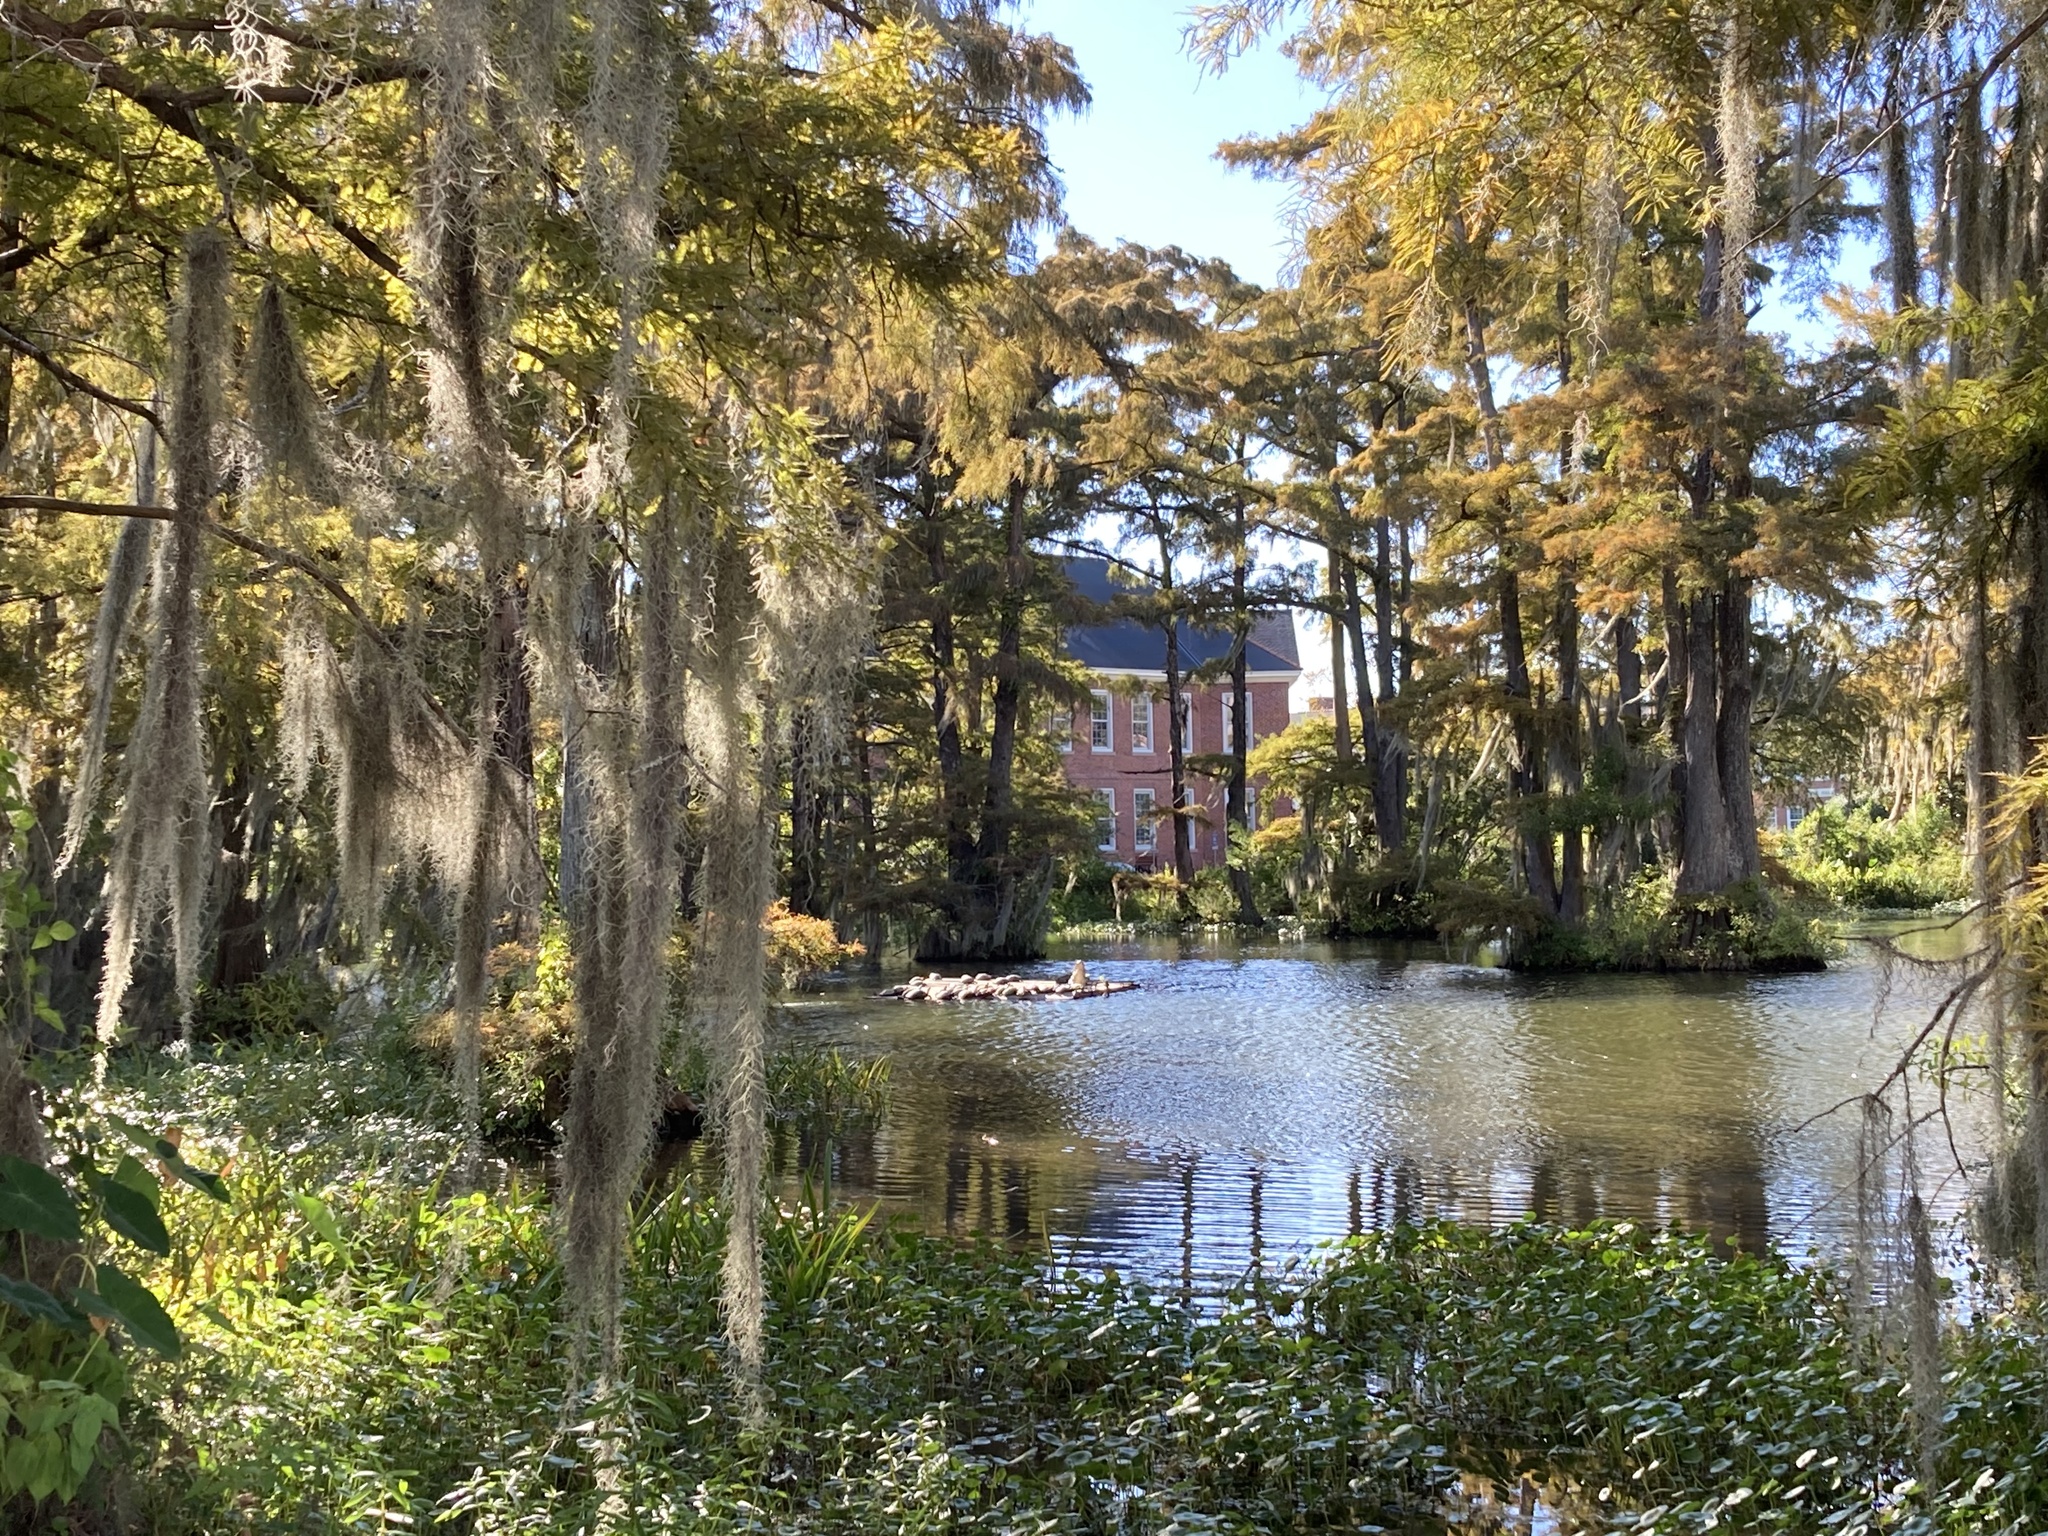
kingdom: Plantae
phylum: Tracheophyta
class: Liliopsida
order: Poales
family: Bromeliaceae
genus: Tillandsia
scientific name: Tillandsia usneoides
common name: Spanish moss
